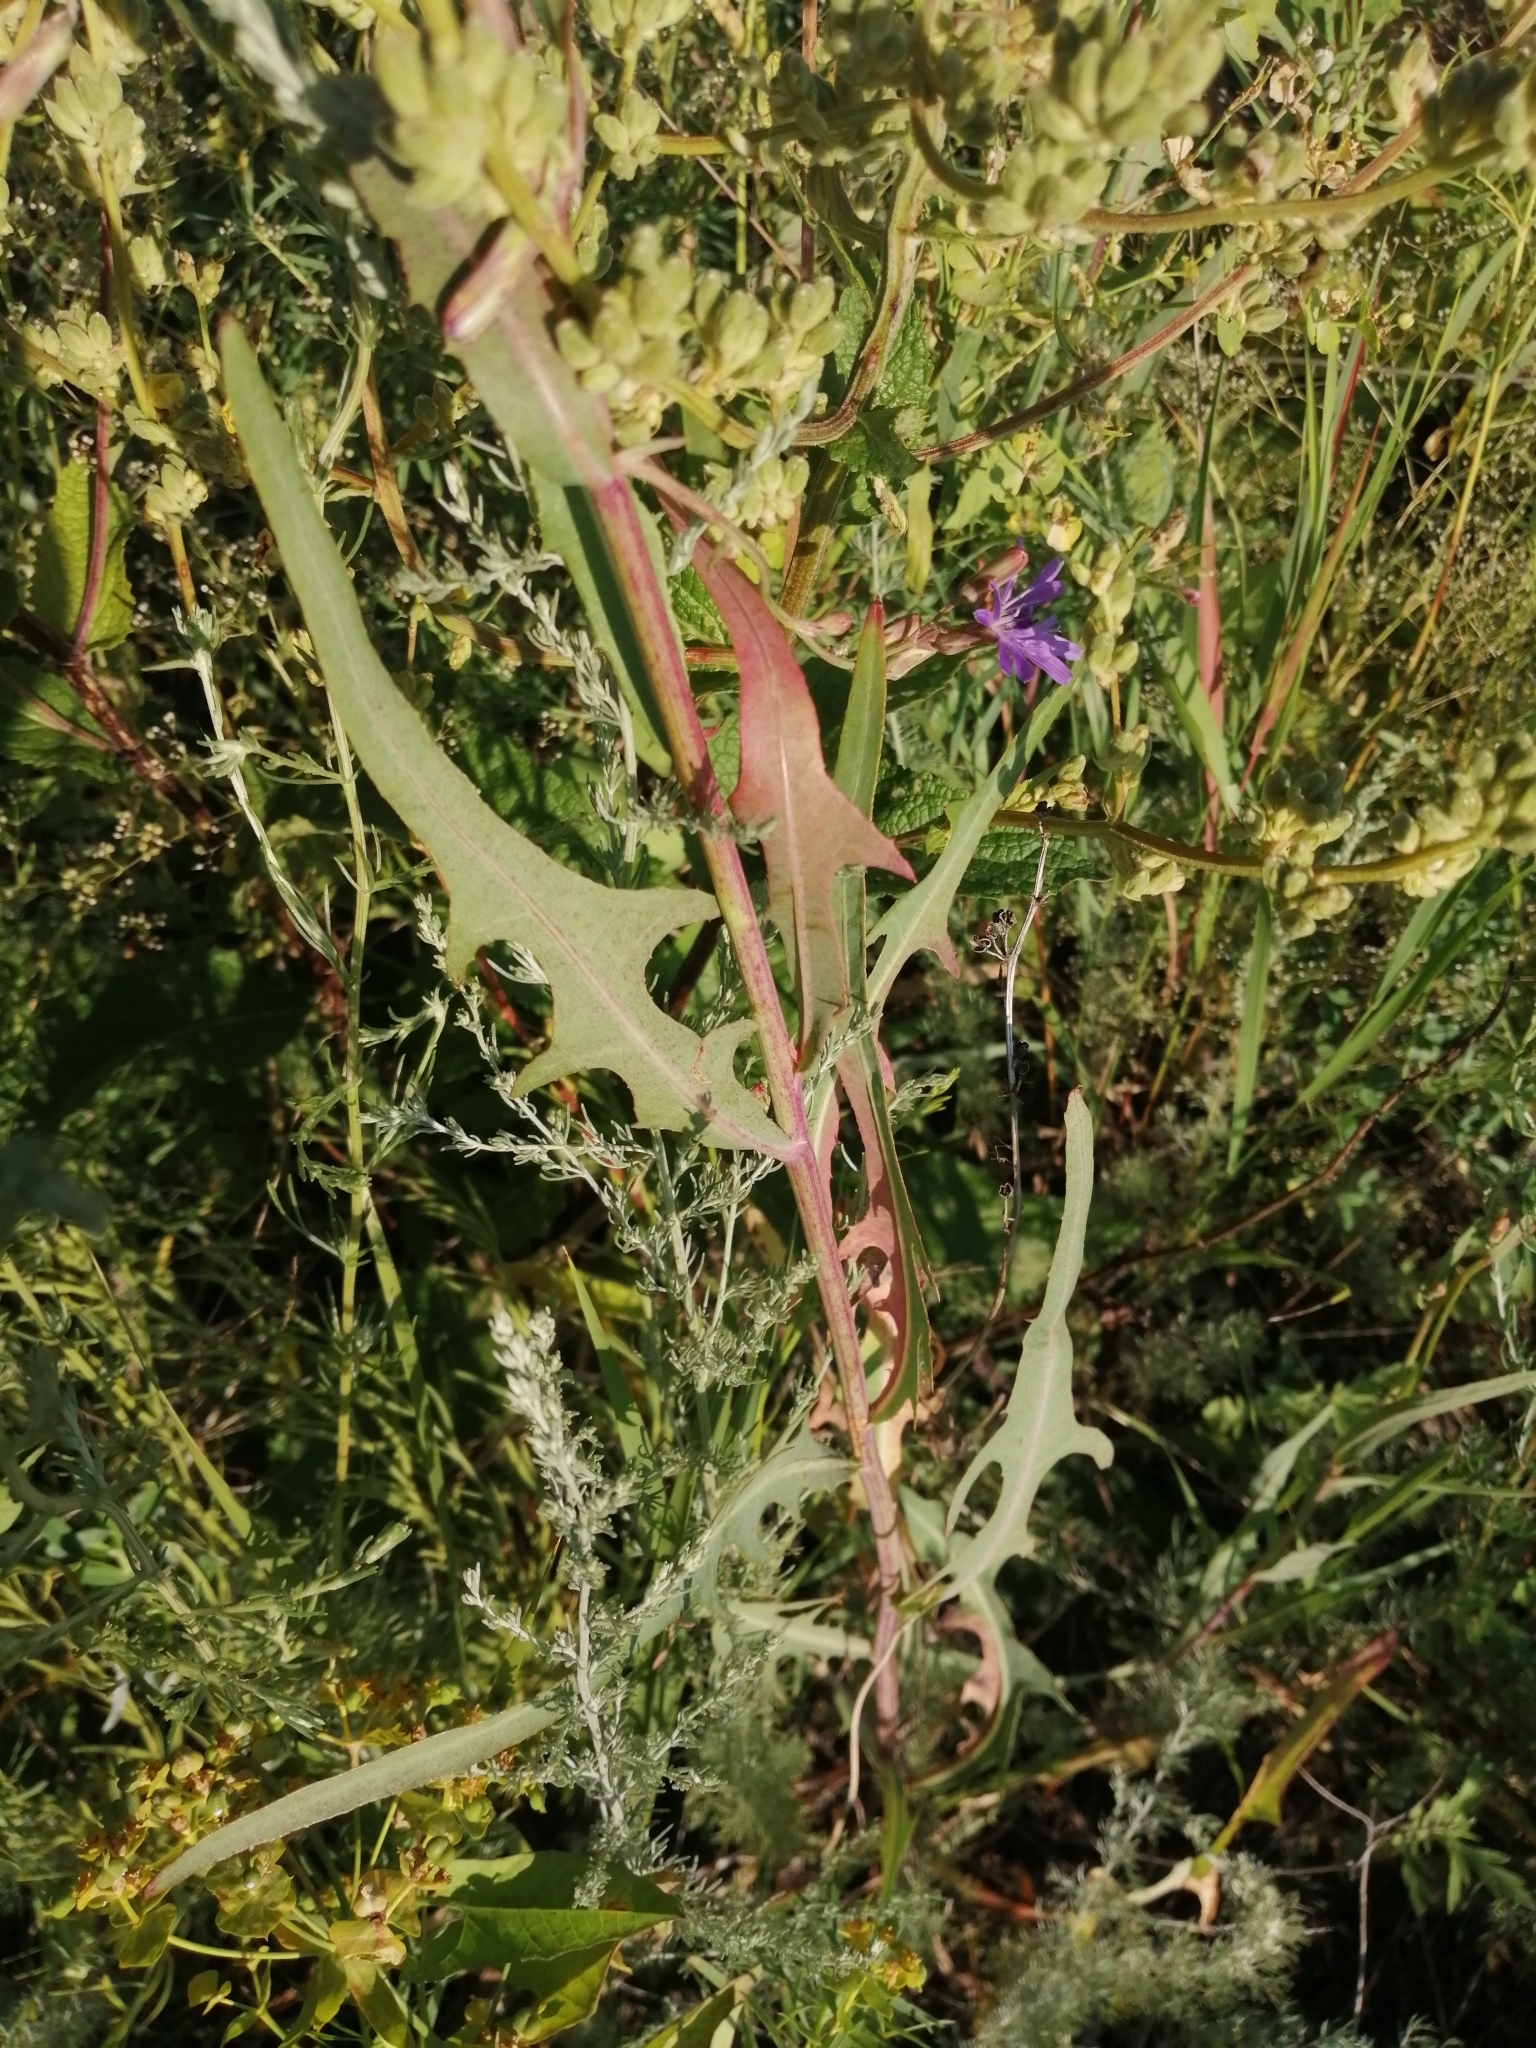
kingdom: Plantae
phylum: Tracheophyta
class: Magnoliopsida
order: Asterales
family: Asteraceae
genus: Lactuca
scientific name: Lactuca tatarica
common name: Blue lettuce
